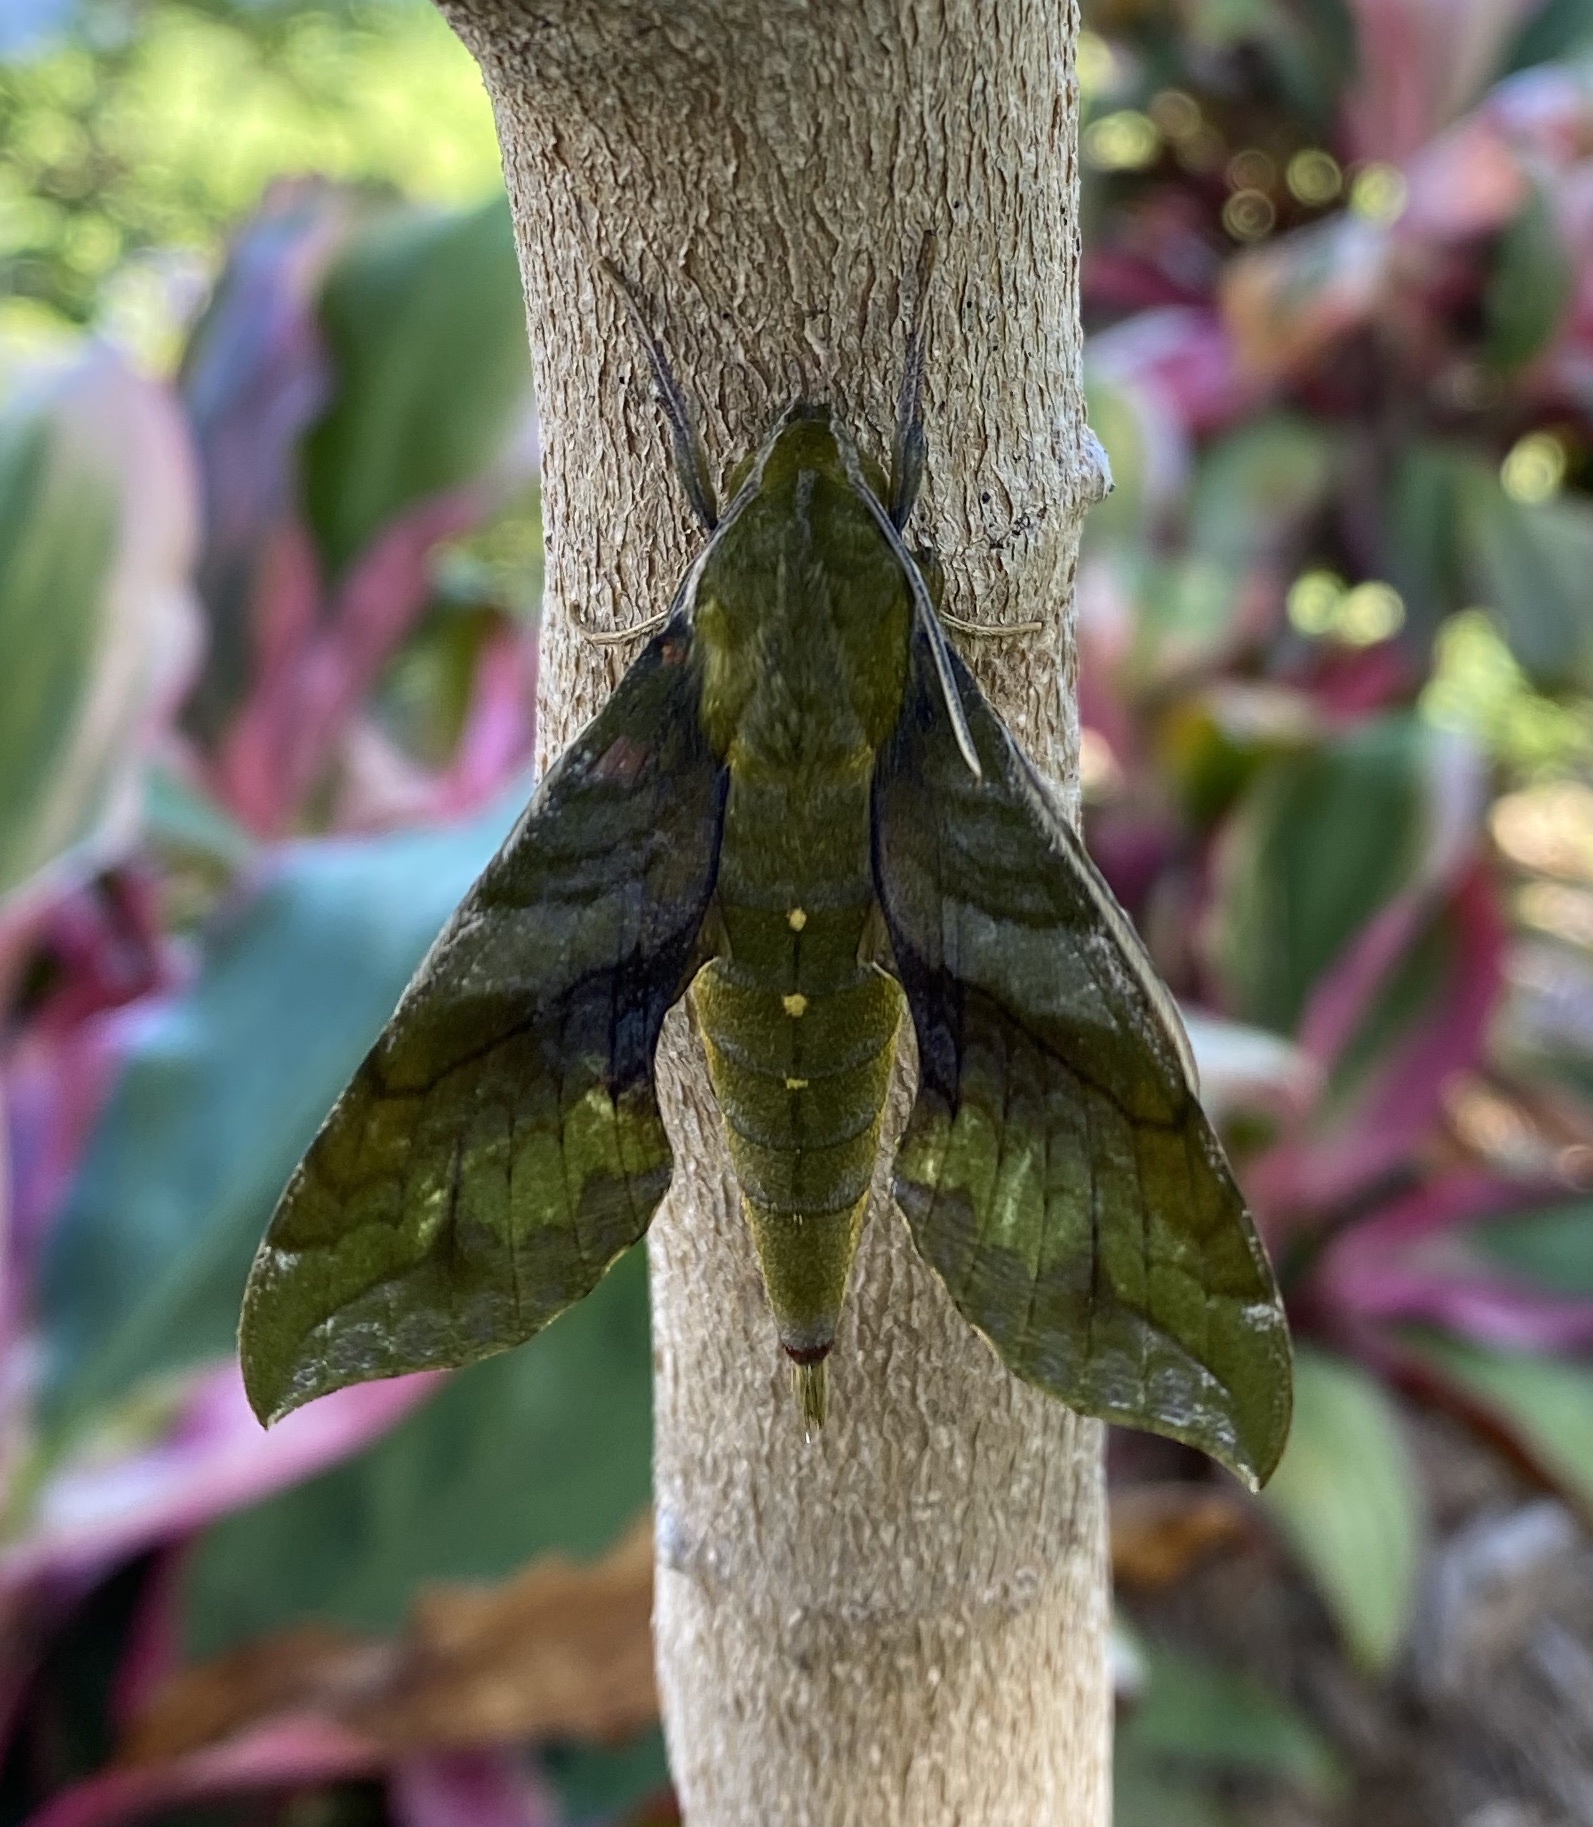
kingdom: Animalia
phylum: Arthropoda
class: Insecta
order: Lepidoptera
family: Sphingidae
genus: Xylophanes
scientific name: Xylophanes pluto
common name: Pluto sphinx
